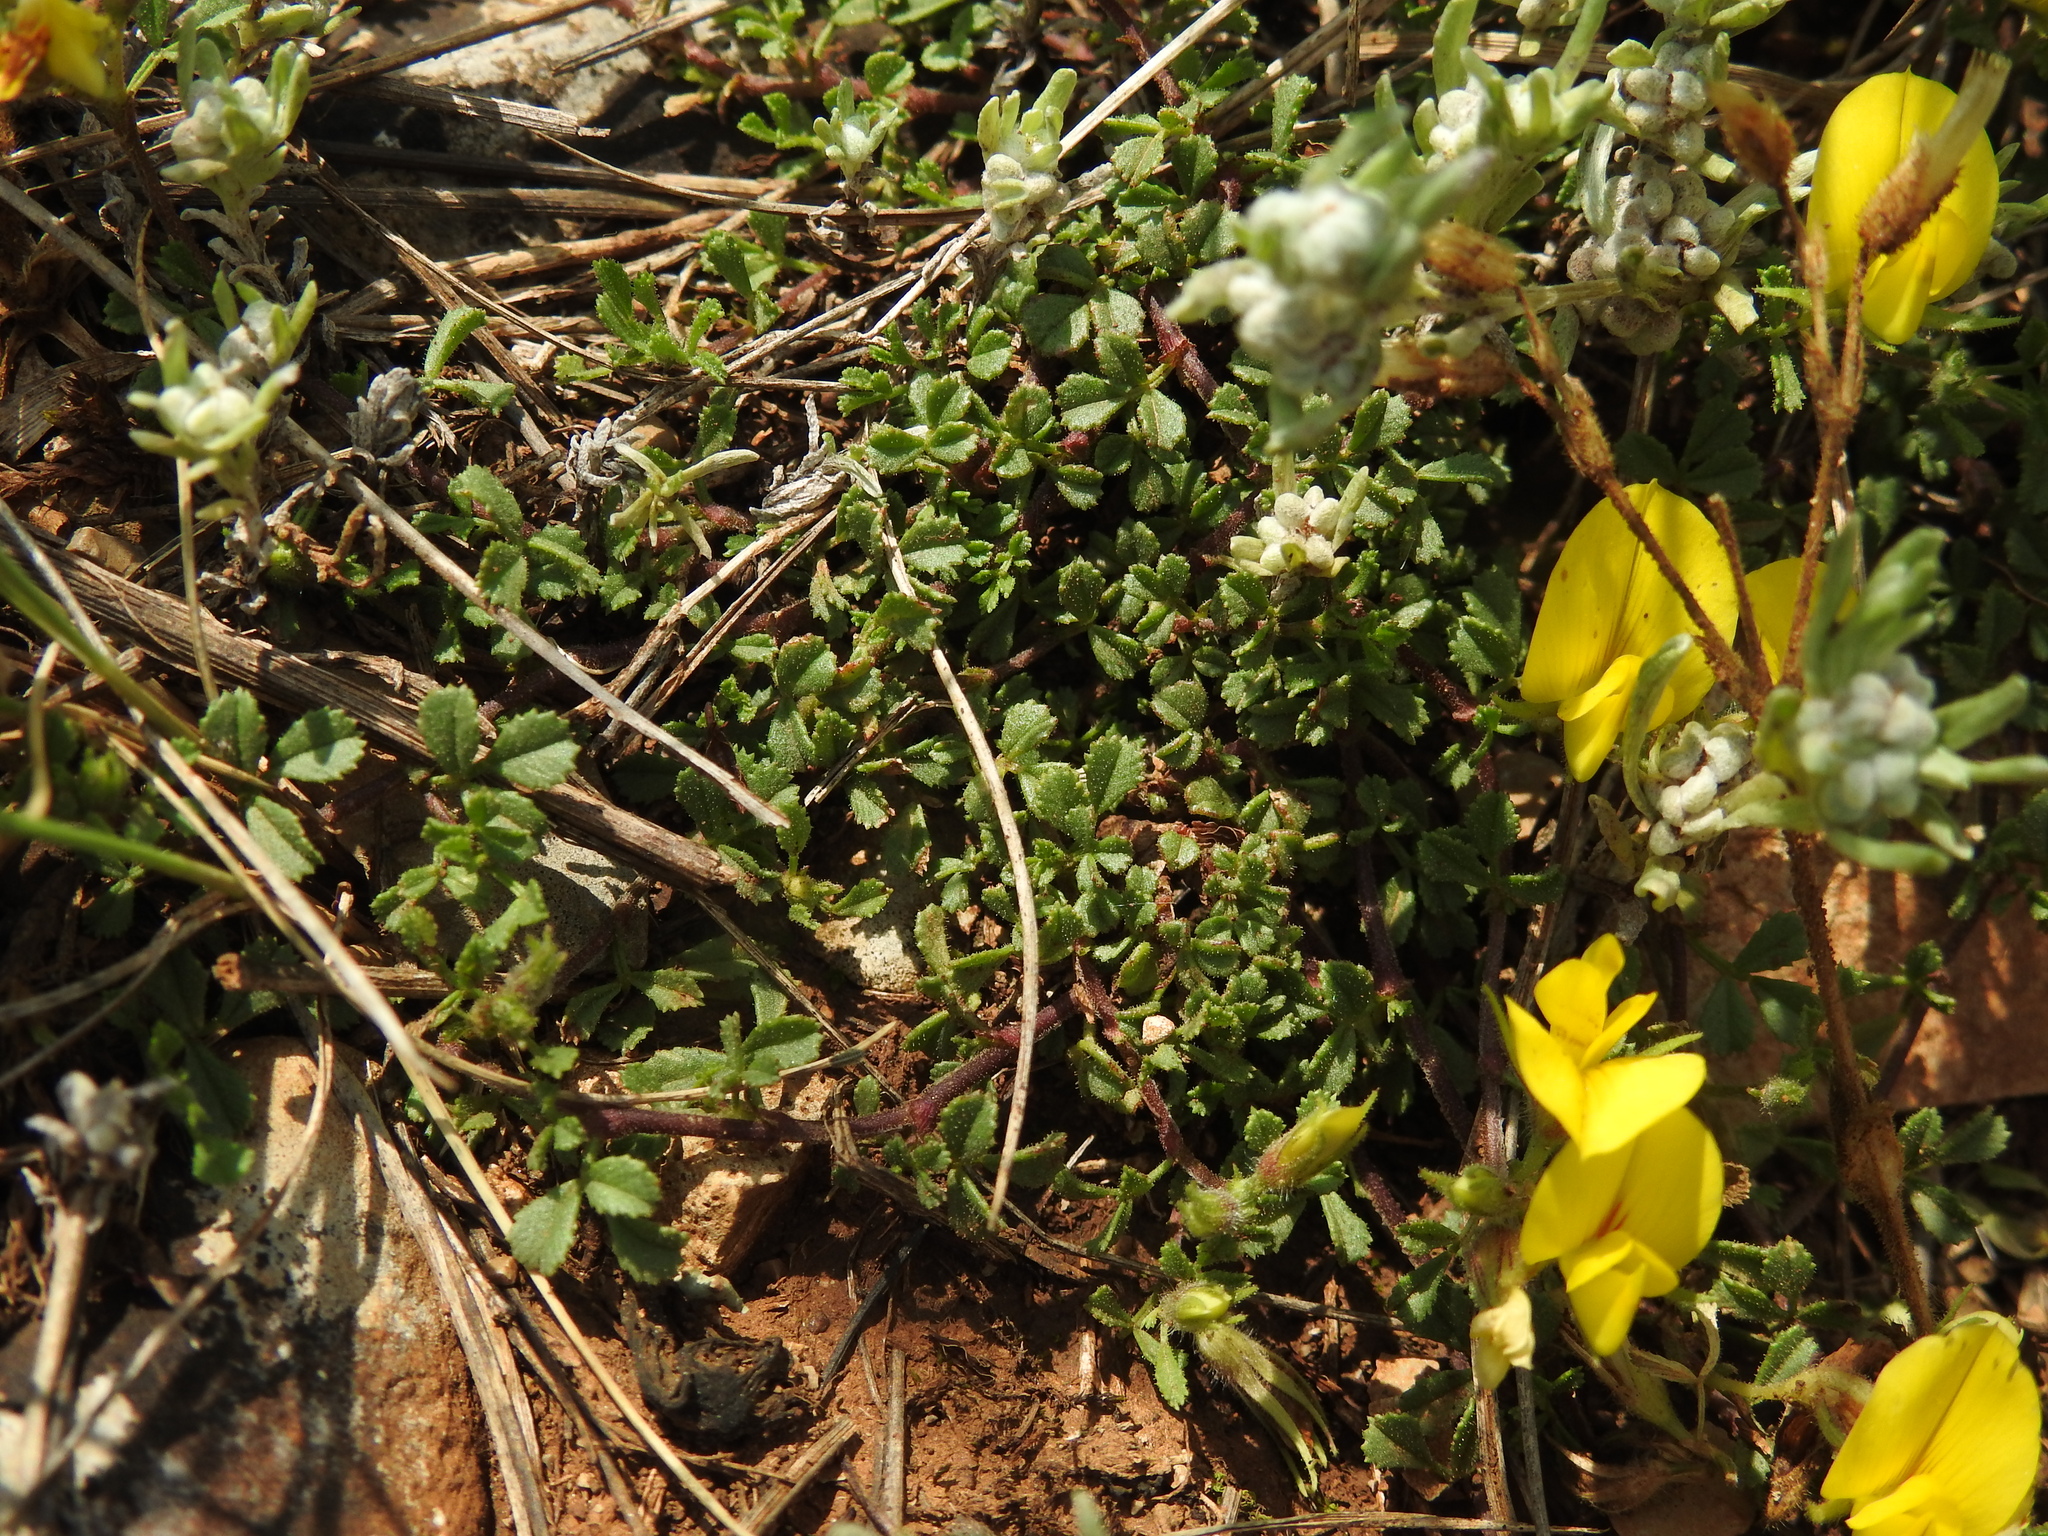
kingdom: Plantae
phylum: Tracheophyta
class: Magnoliopsida
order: Fabales
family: Fabaceae
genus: Ononis
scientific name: Ononis striata
